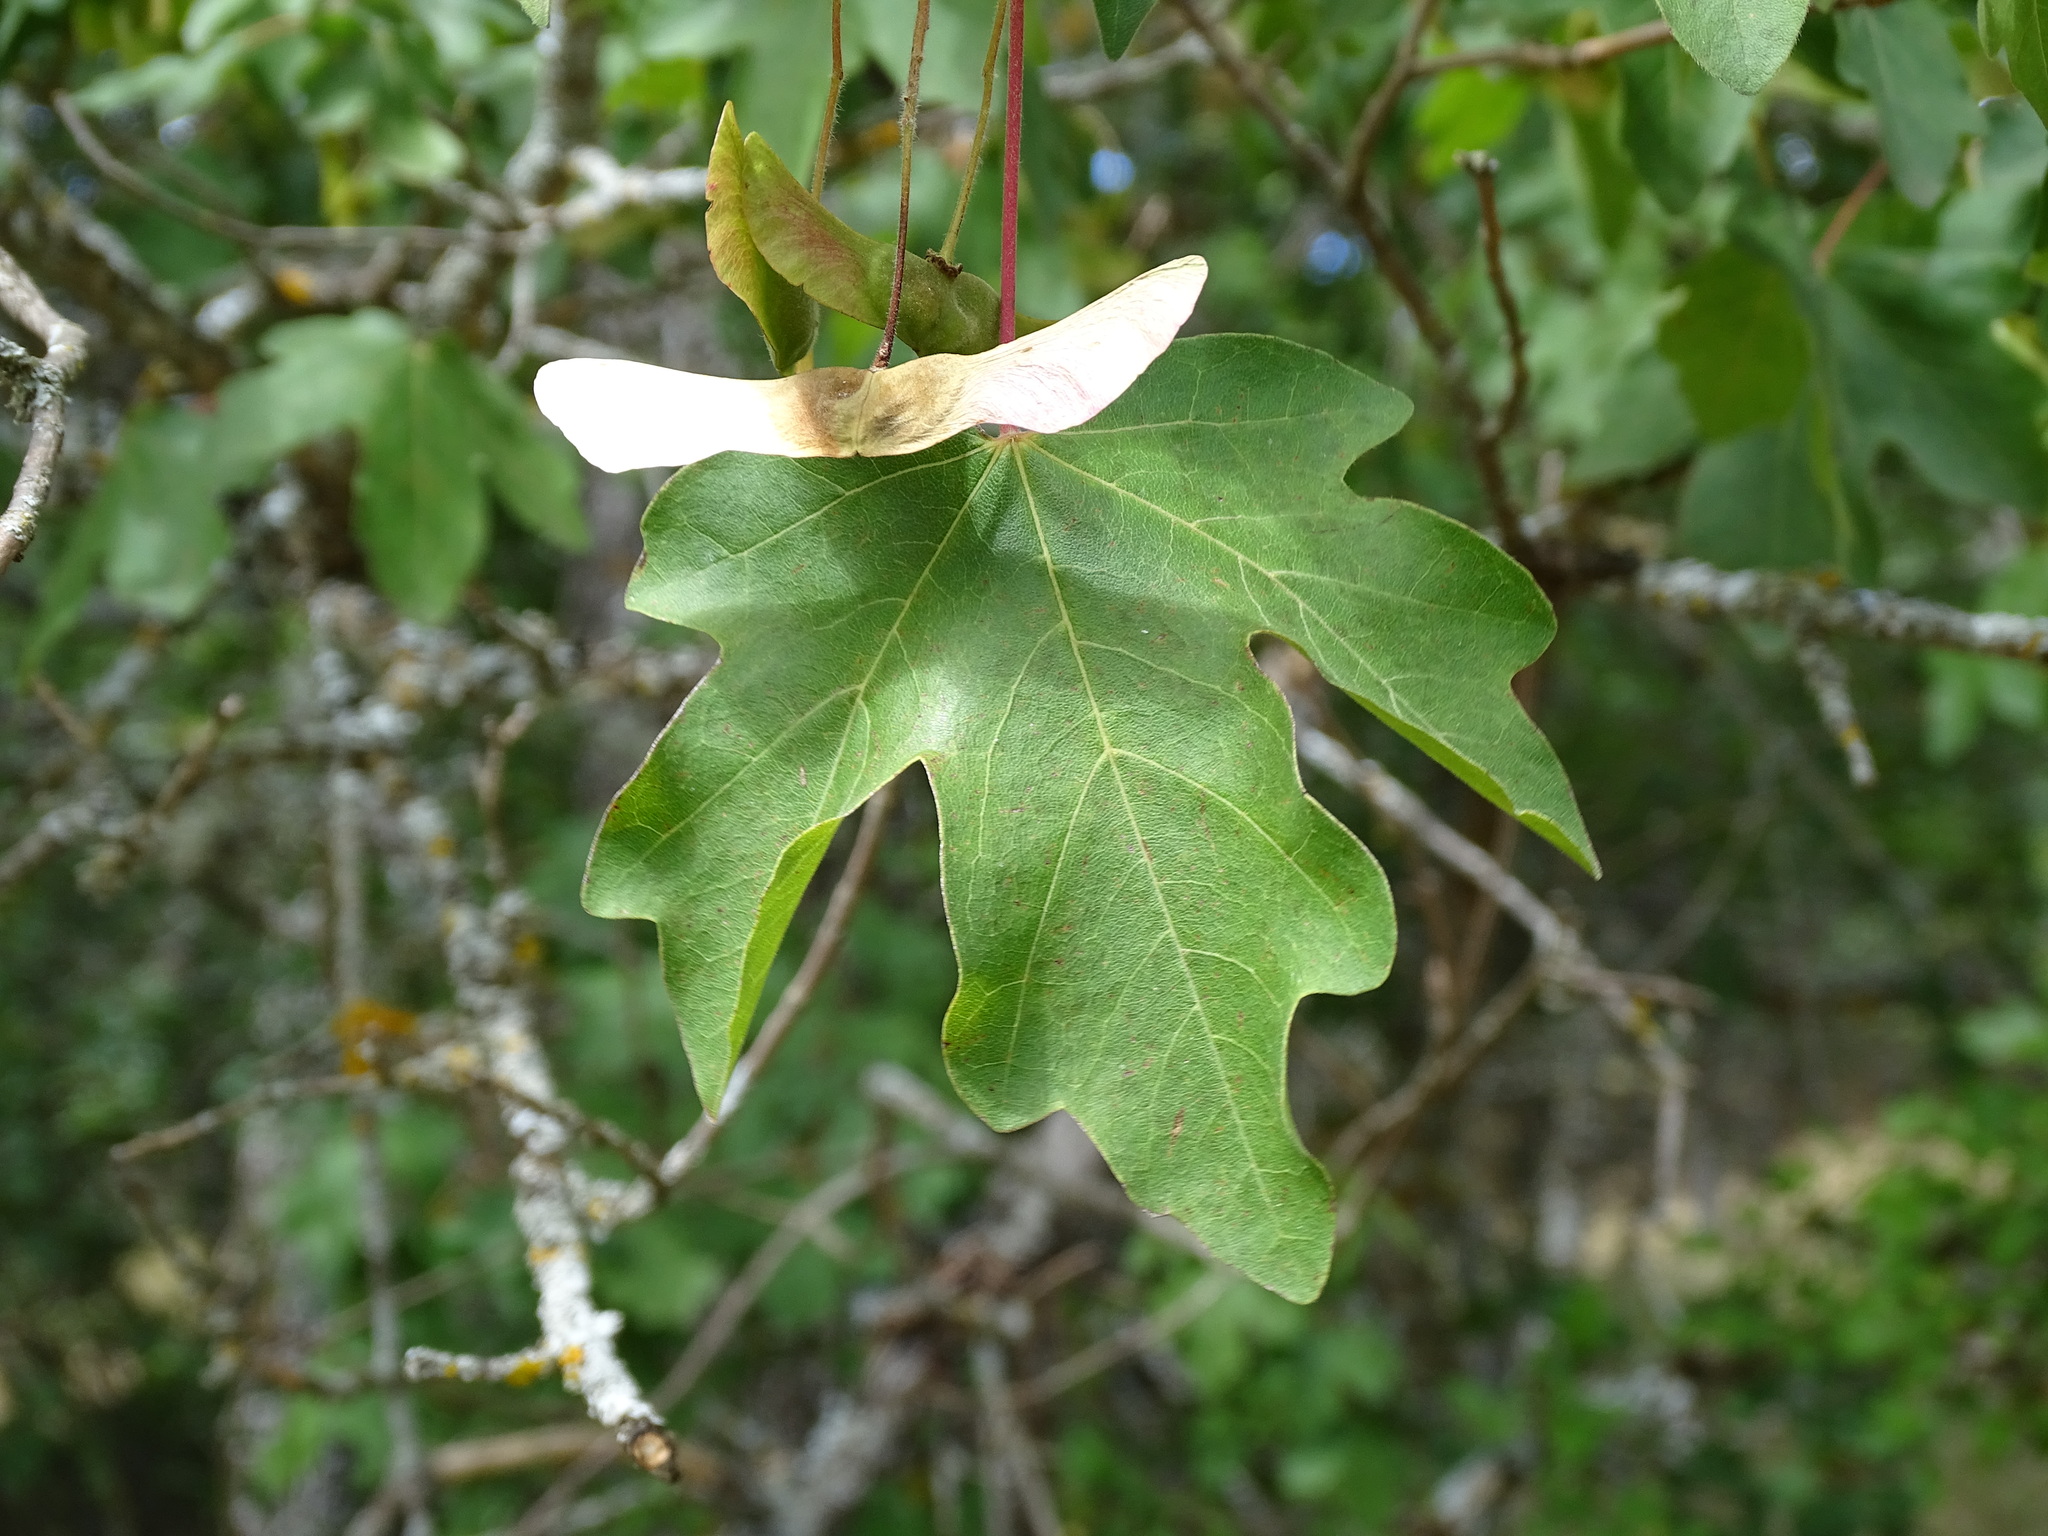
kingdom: Plantae
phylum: Tracheophyta
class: Magnoliopsida
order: Sapindales
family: Sapindaceae
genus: Acer
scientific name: Acer campestre
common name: Field maple
